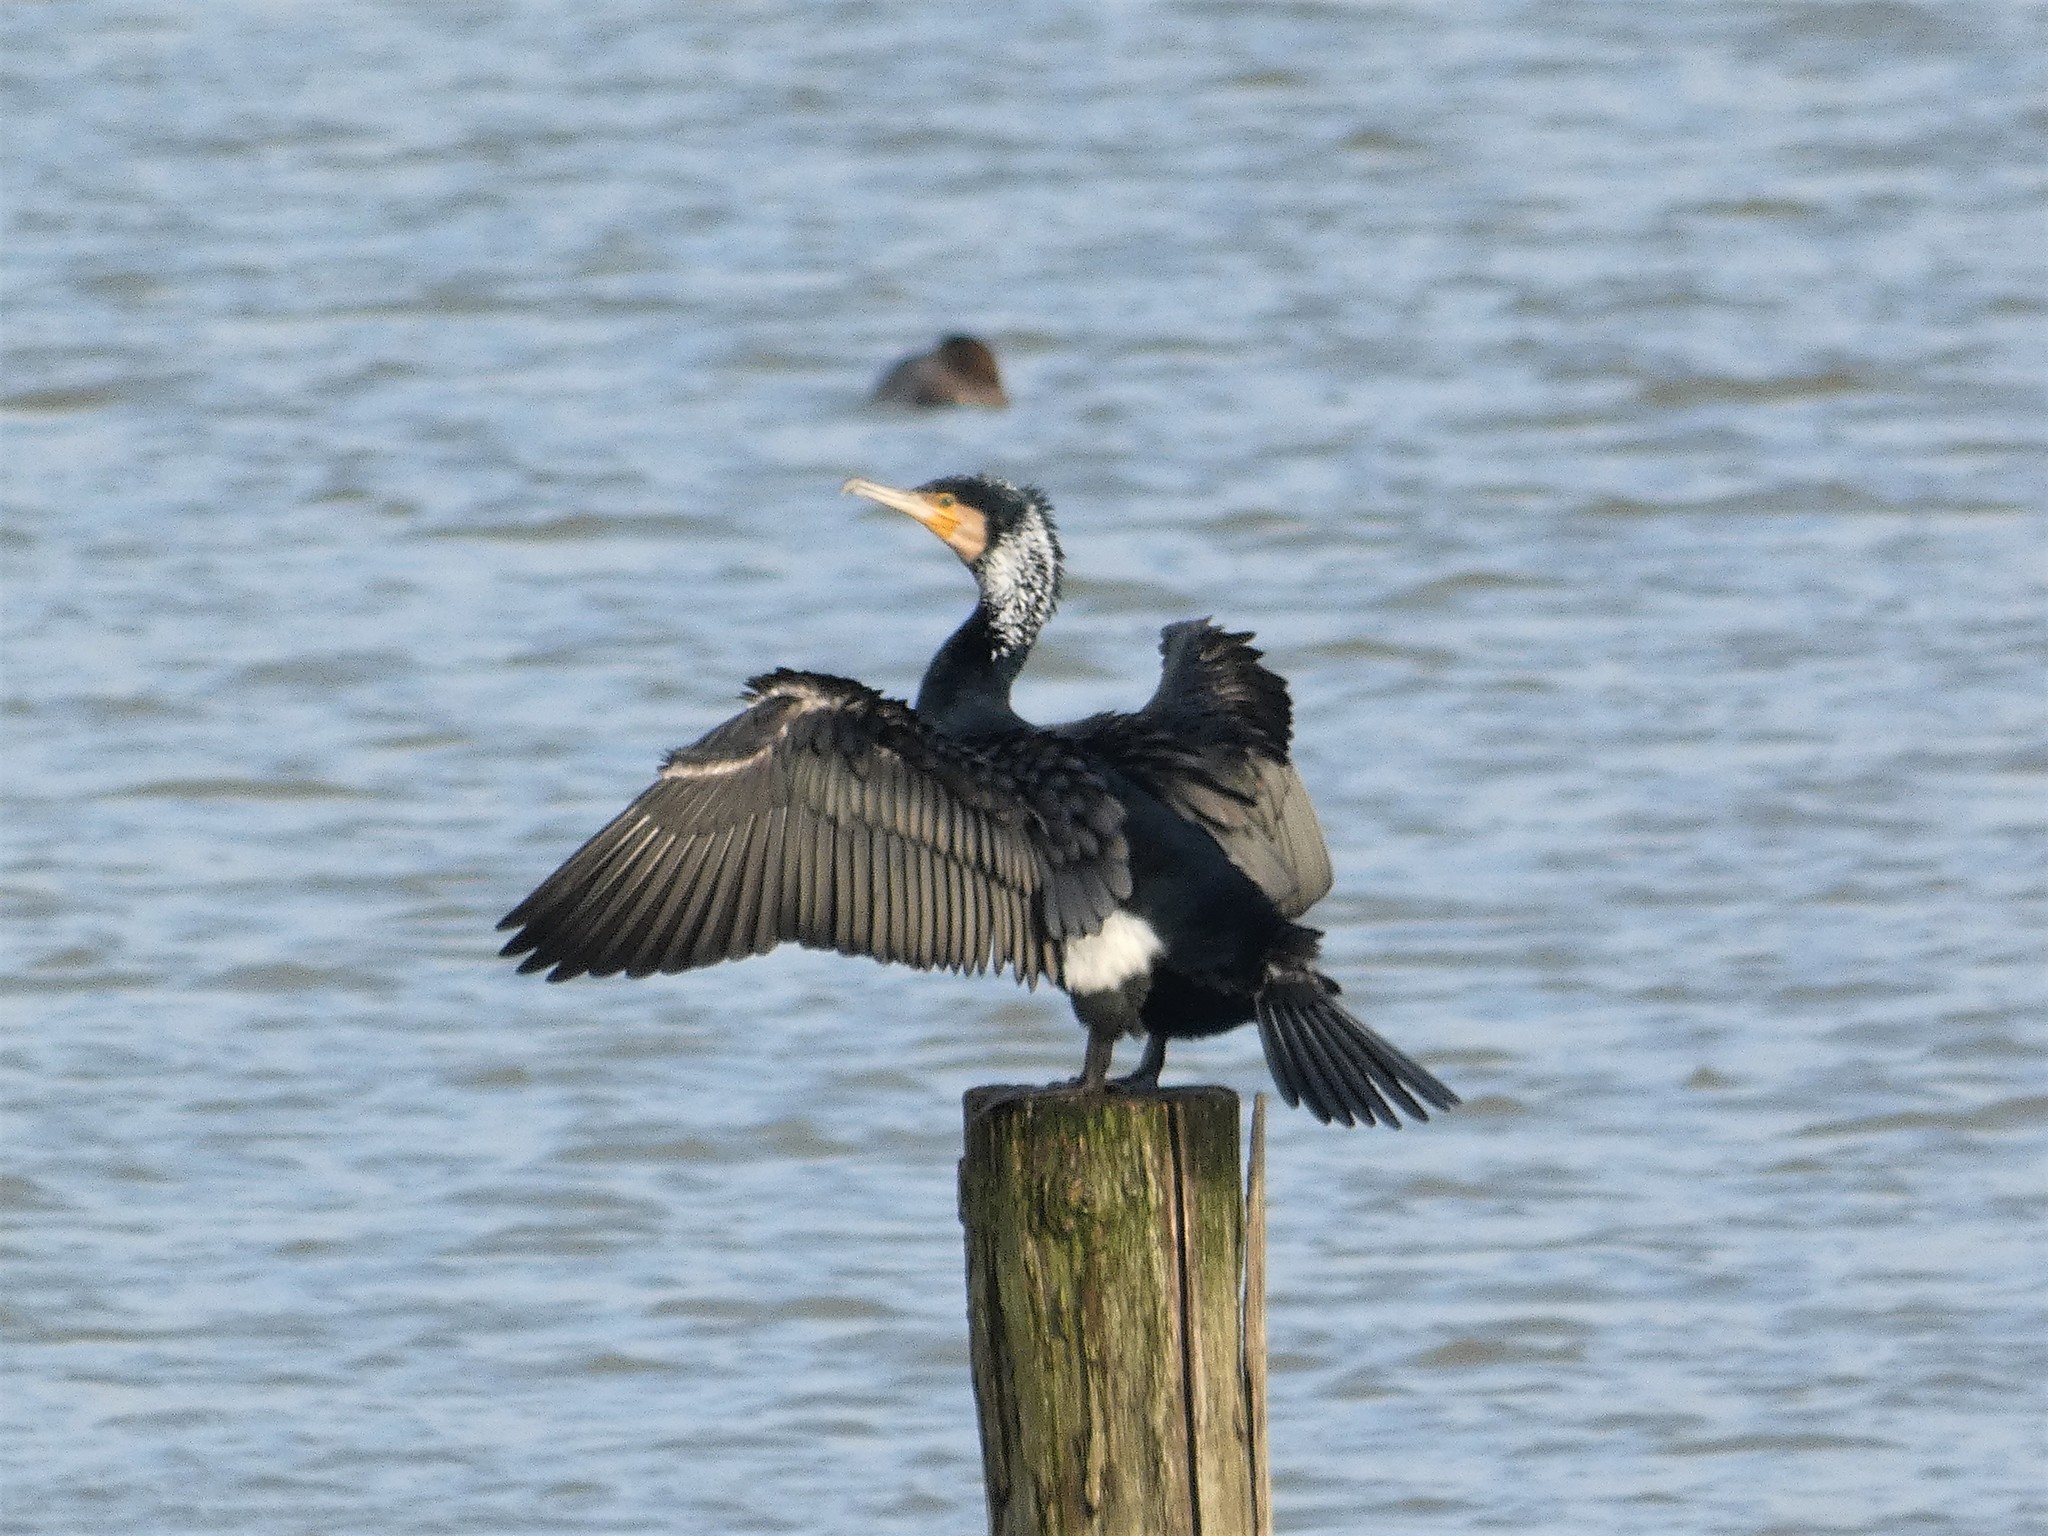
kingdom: Animalia
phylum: Chordata
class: Aves
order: Suliformes
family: Phalacrocoracidae
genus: Phalacrocorax
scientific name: Phalacrocorax carbo
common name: Great cormorant
